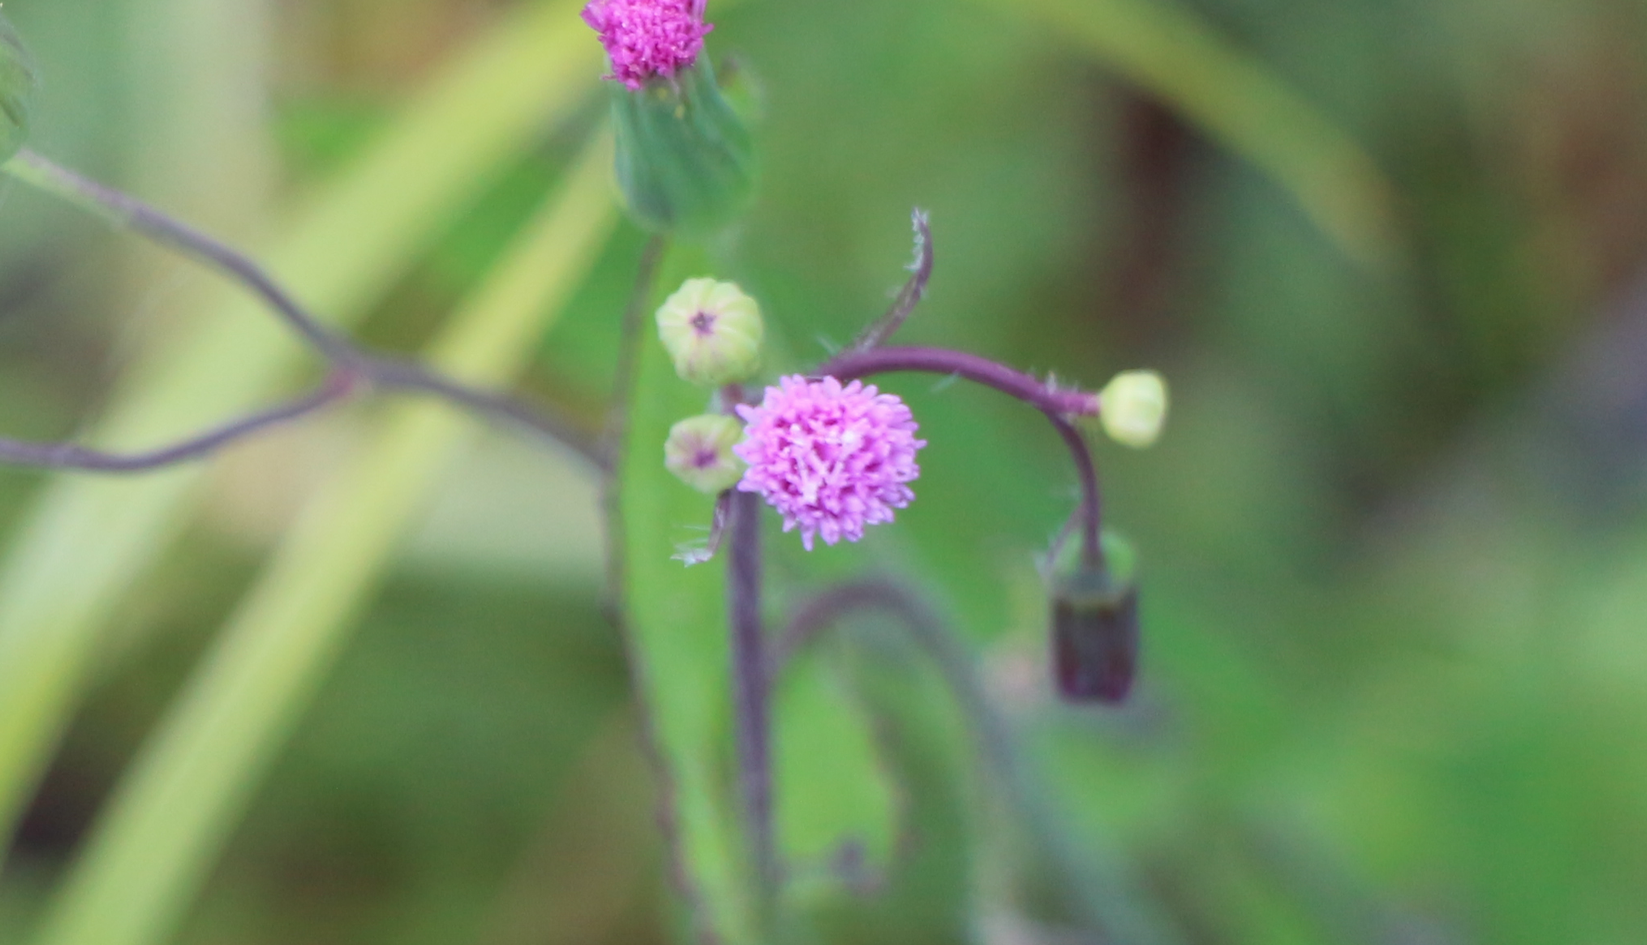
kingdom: Plantae
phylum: Tracheophyta
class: Magnoliopsida
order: Asterales
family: Asteraceae
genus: Emilia
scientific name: Emilia sonchifolia
